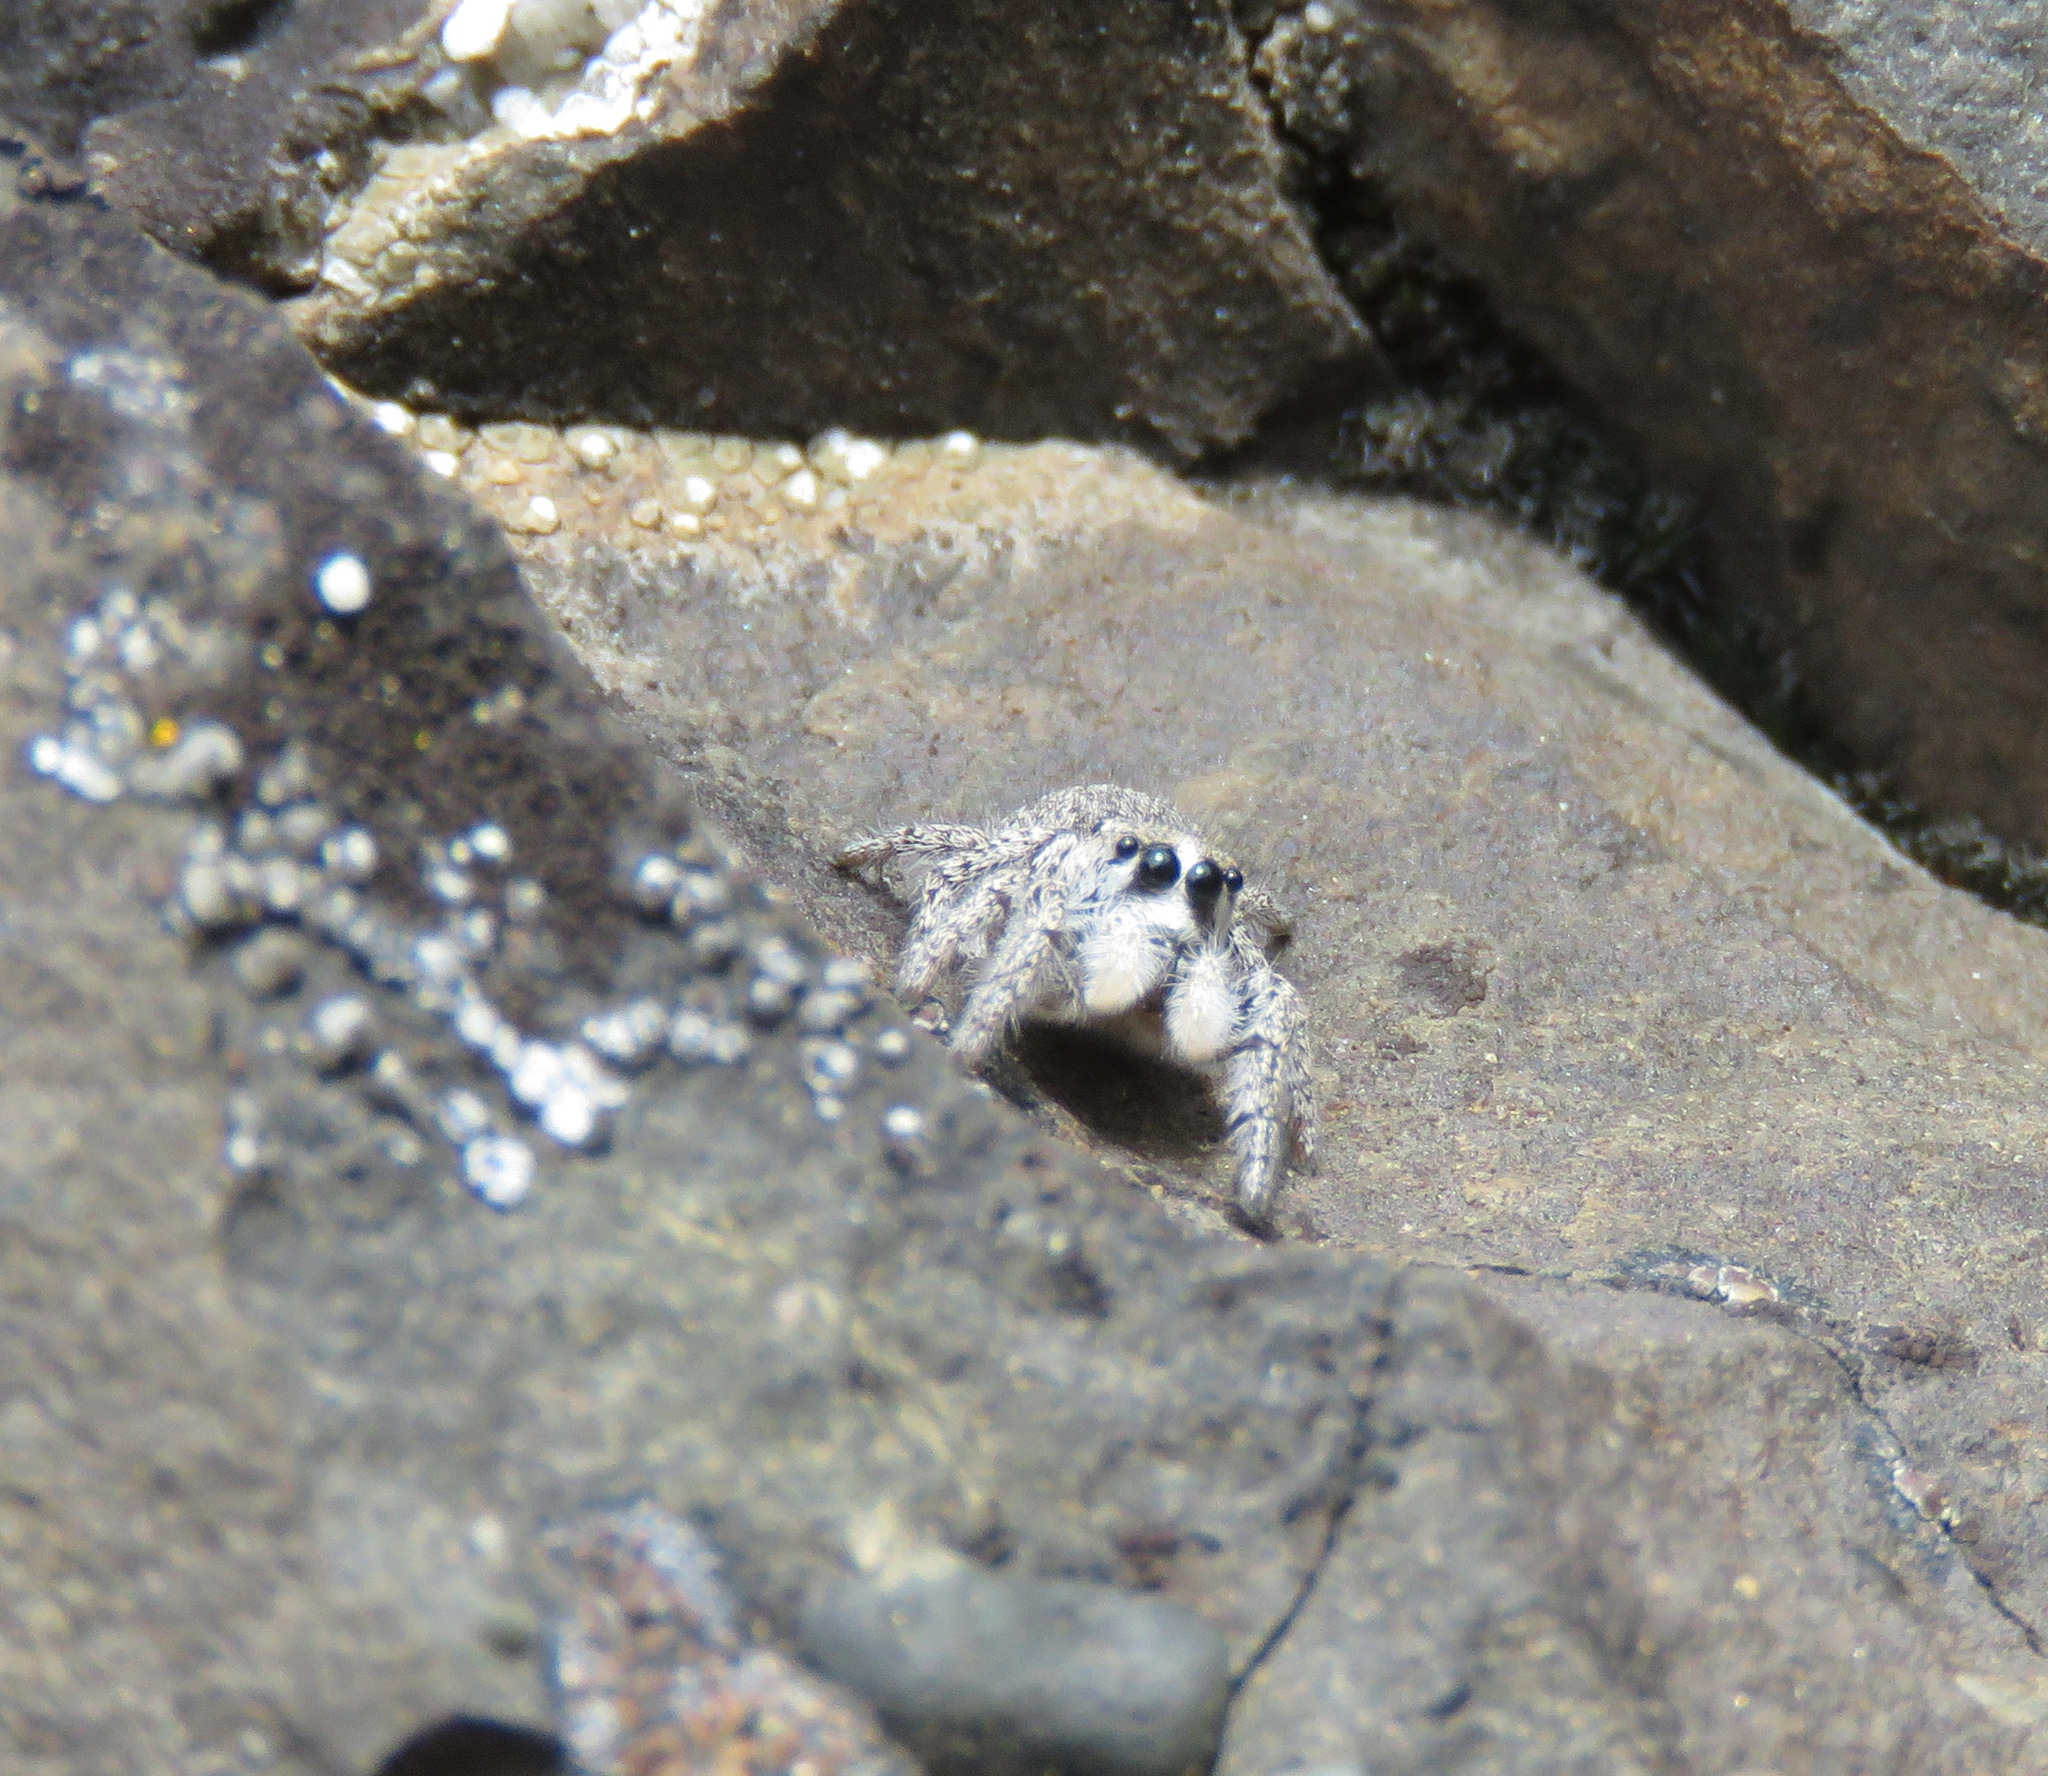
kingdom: Animalia
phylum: Arthropoda
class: Arachnida
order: Araneae
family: Salticidae
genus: Habronattus
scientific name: Habronattus hirsutus
